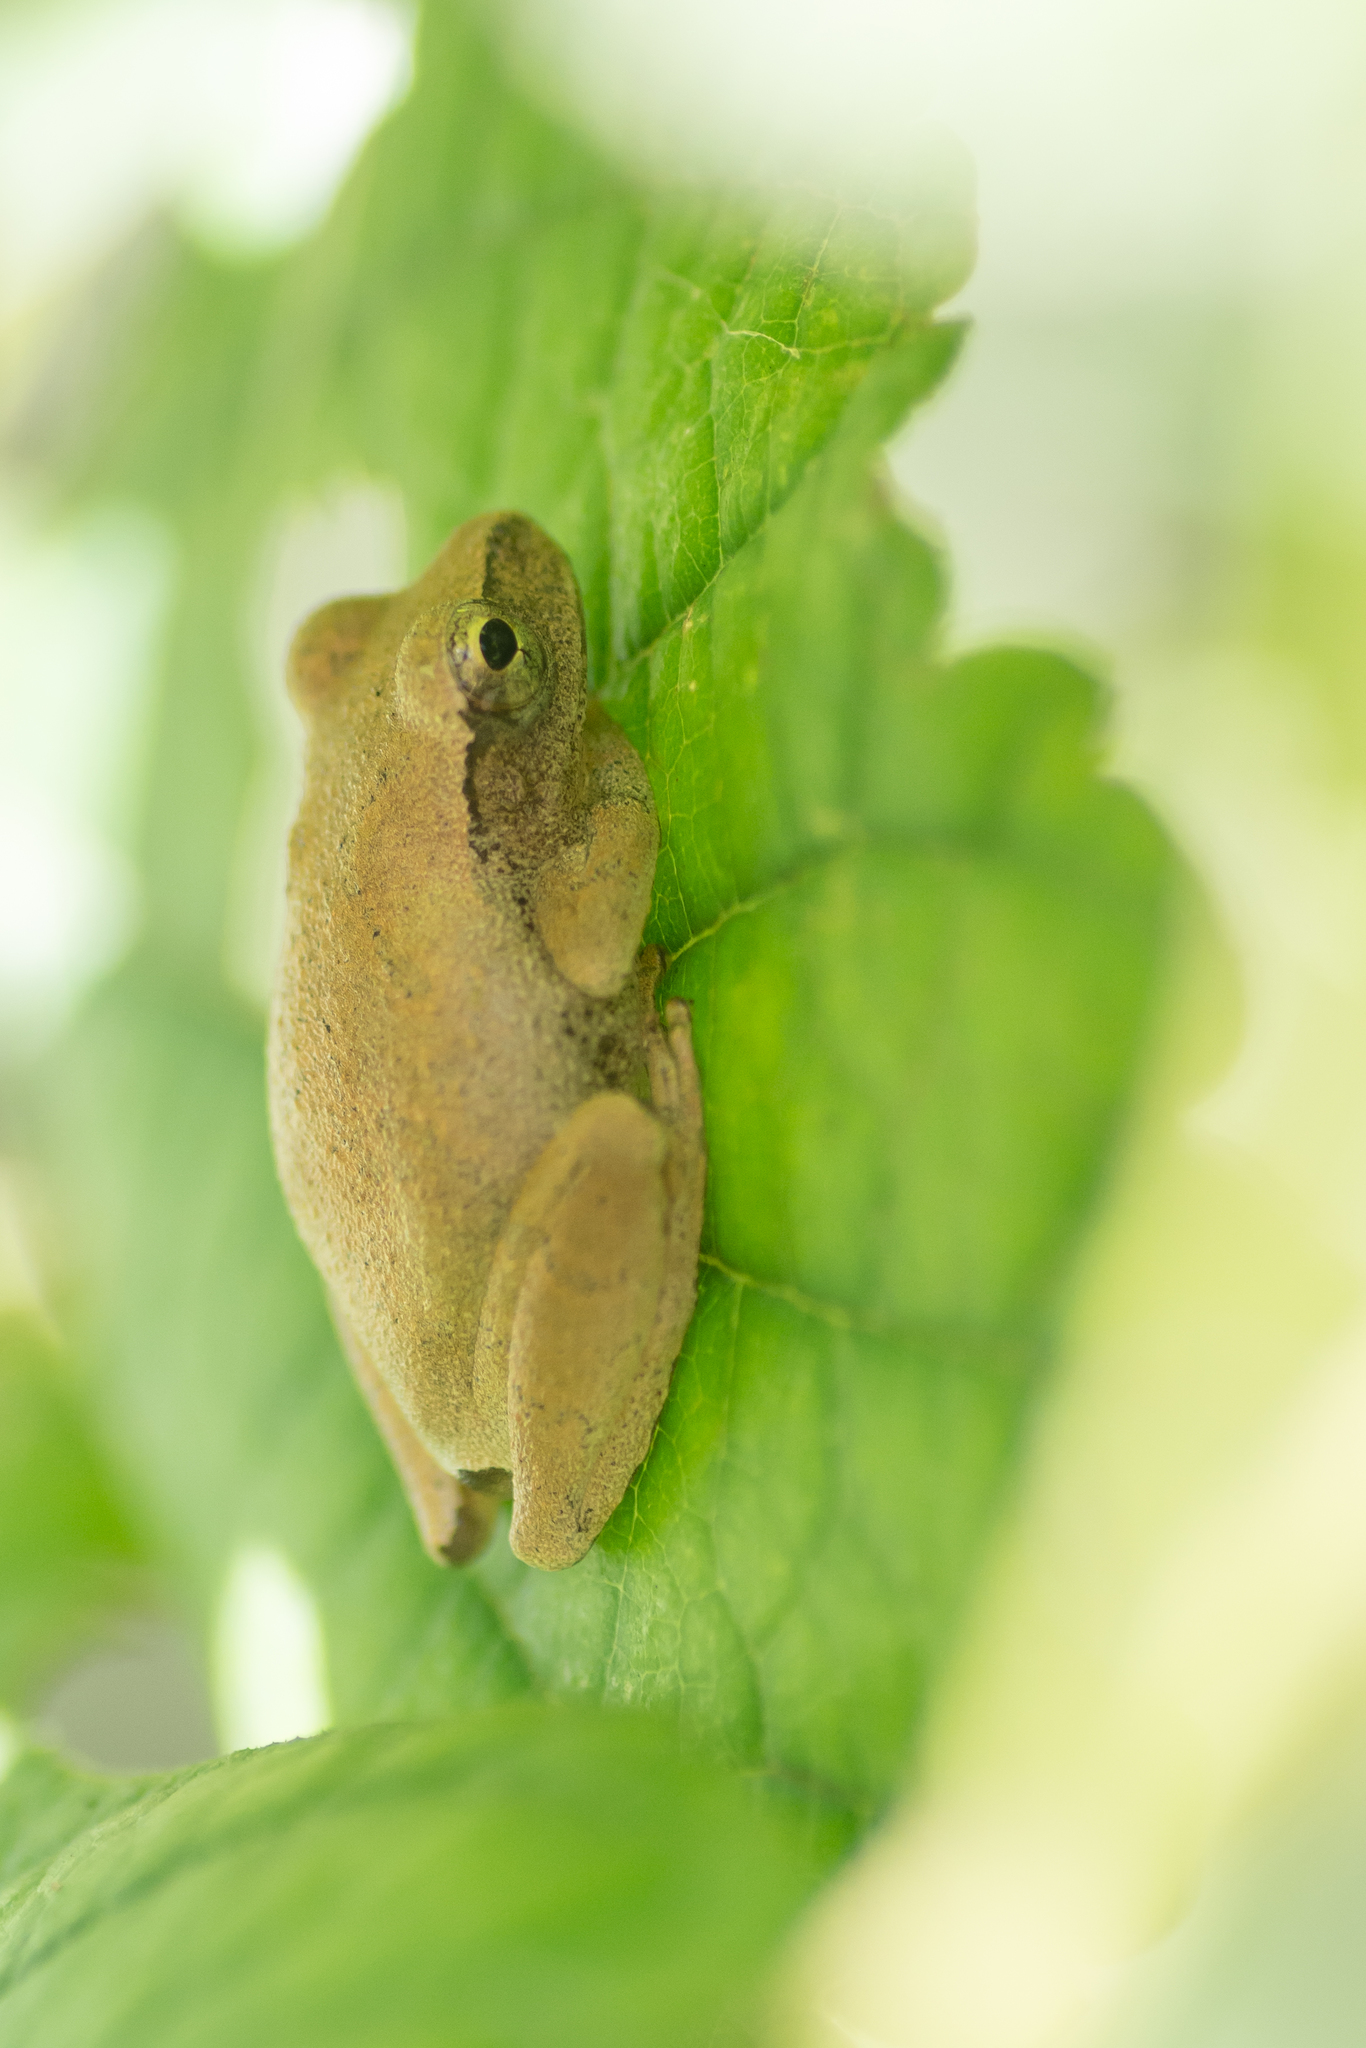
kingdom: Animalia
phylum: Chordata
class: Amphibia
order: Anura
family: Hylidae
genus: Pseudacris
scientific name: Pseudacris crucifer
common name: Spring peeper
